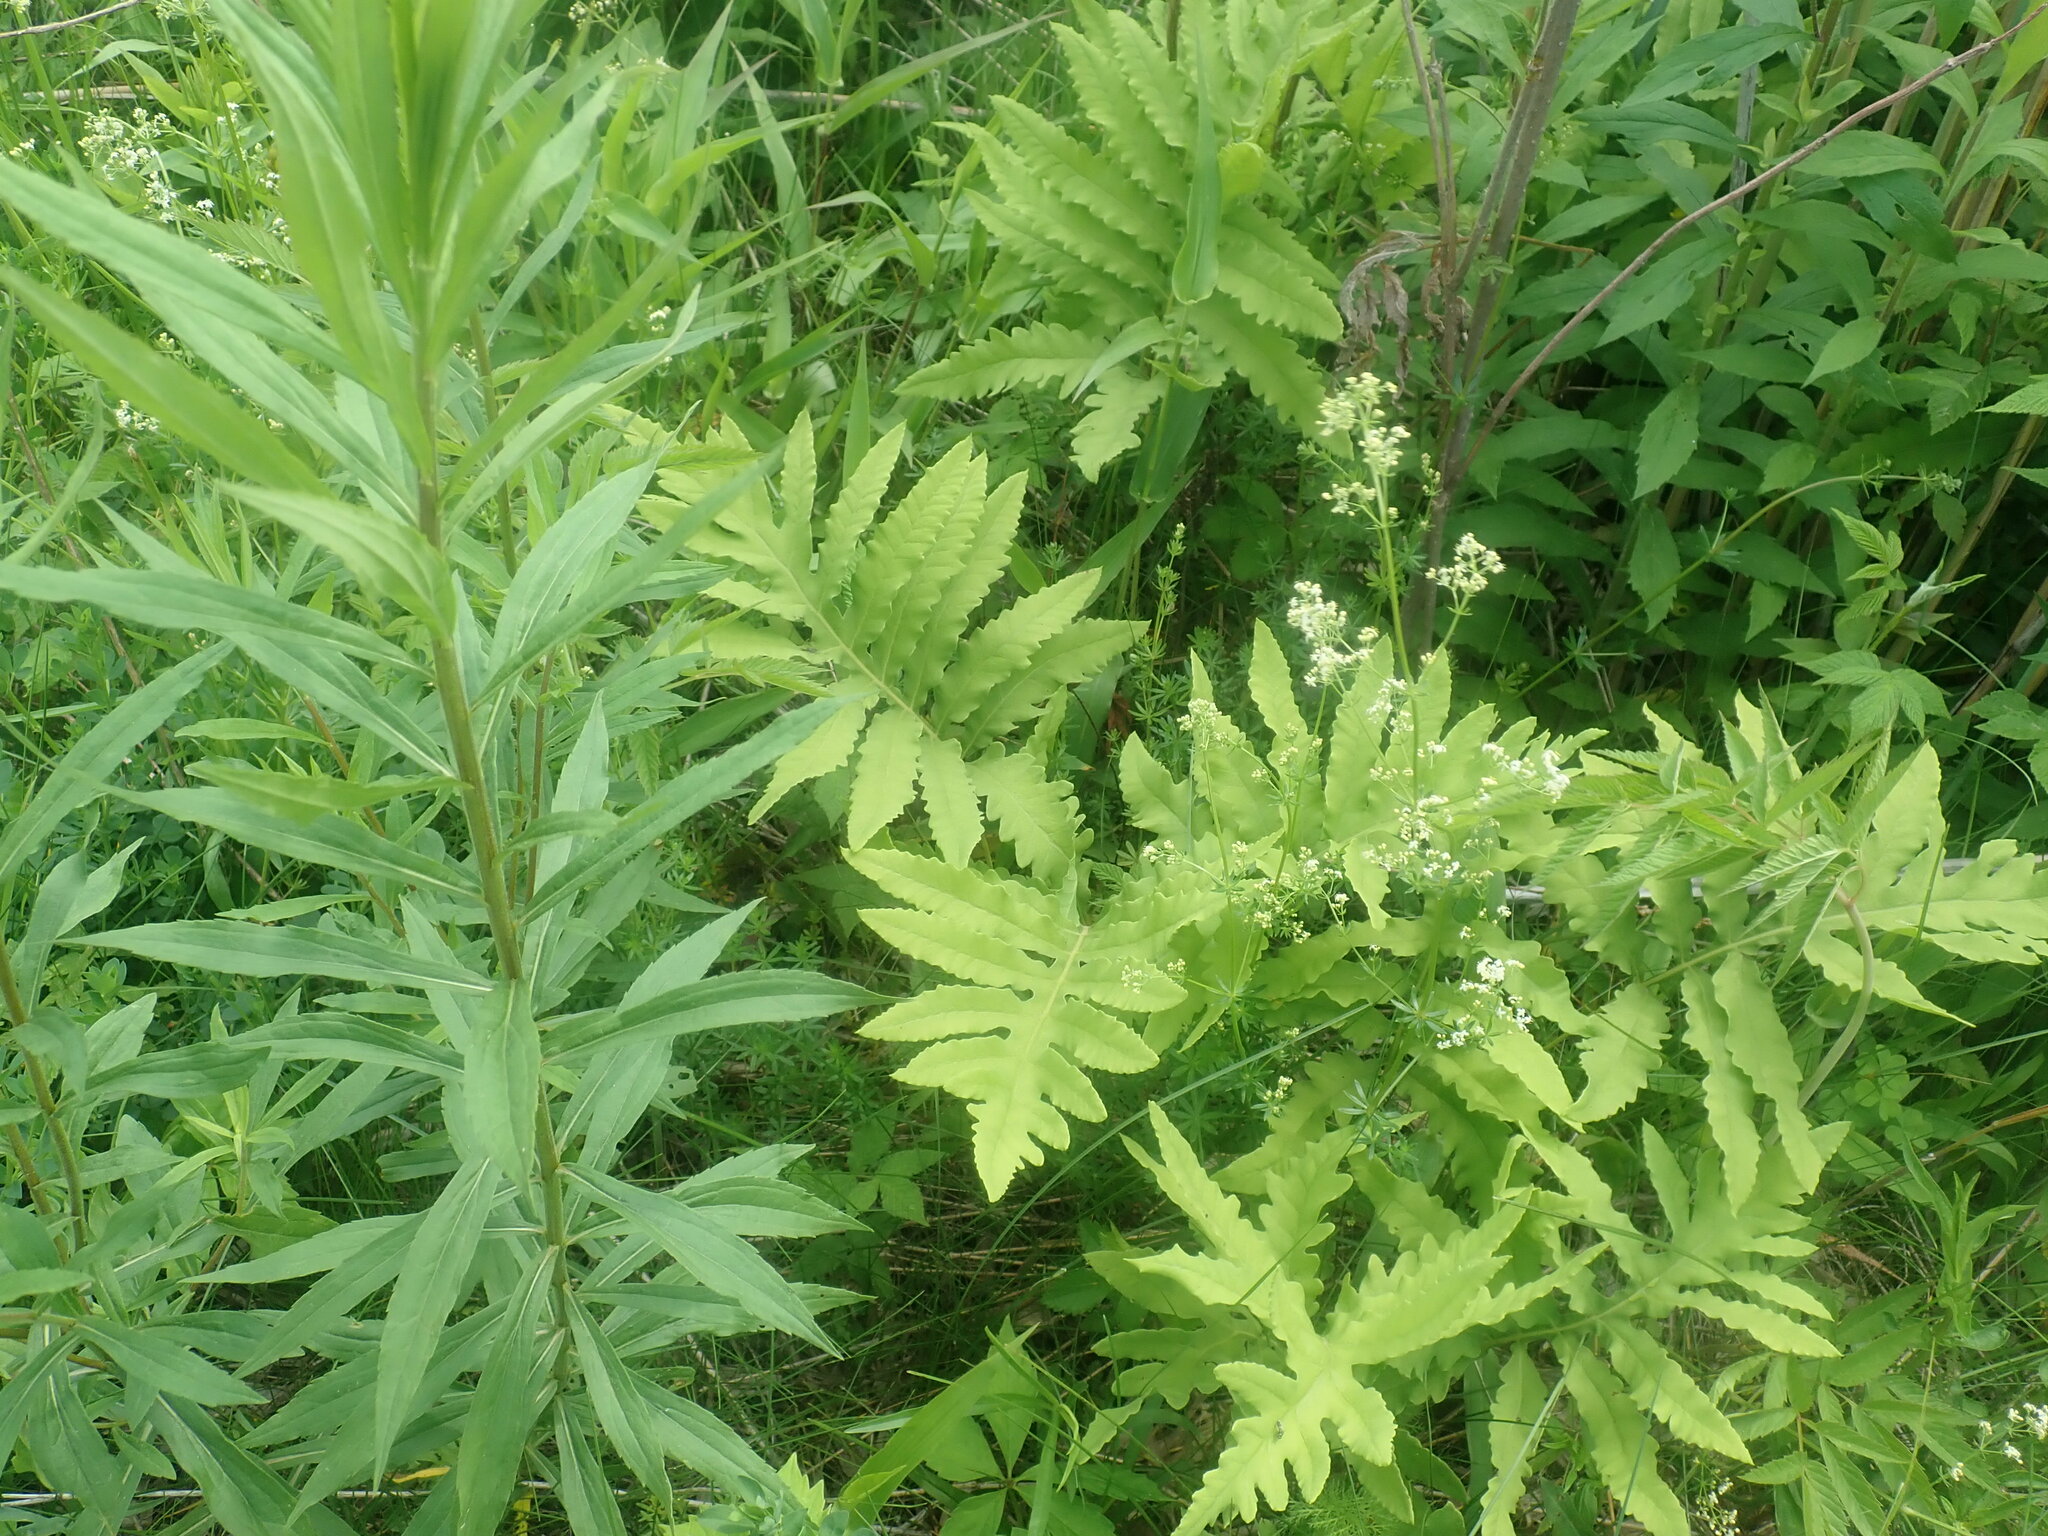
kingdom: Plantae
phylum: Tracheophyta
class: Polypodiopsida
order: Polypodiales
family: Onocleaceae
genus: Onoclea
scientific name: Onoclea sensibilis
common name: Sensitive fern
